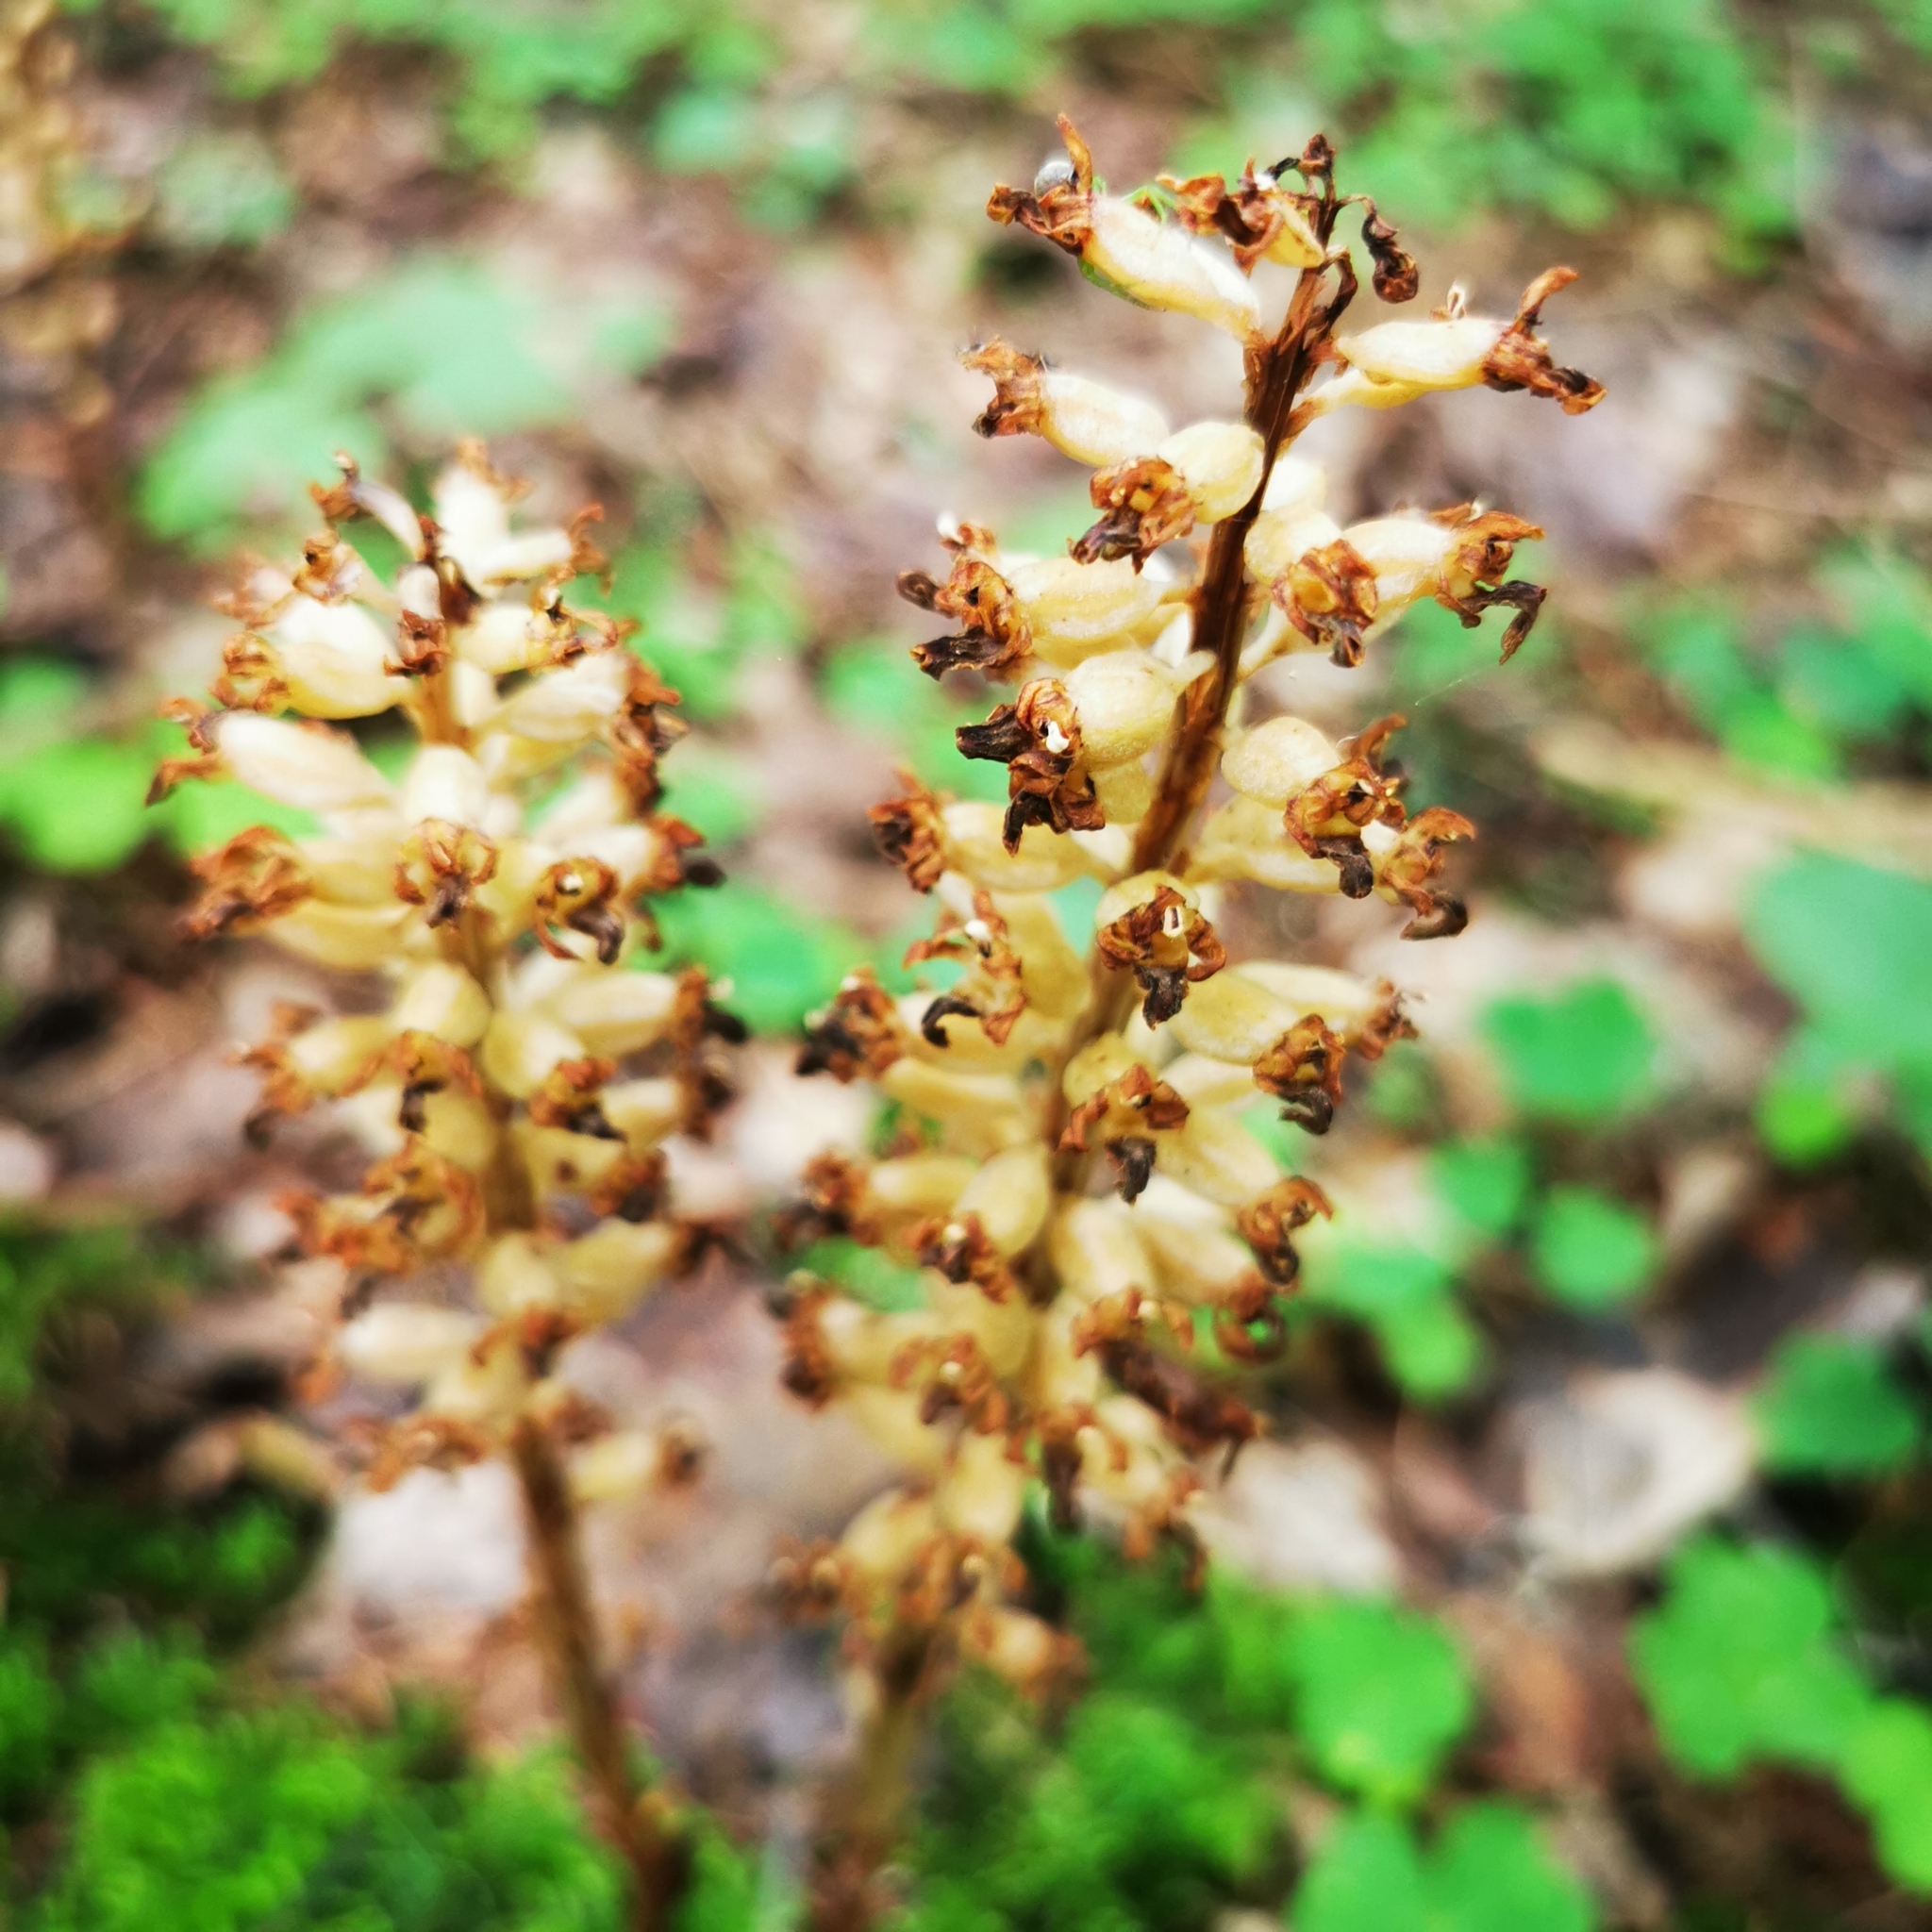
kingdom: Plantae
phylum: Tracheophyta
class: Liliopsida
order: Asparagales
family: Orchidaceae
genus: Neottia
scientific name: Neottia nidus-avis
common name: Bird's-nest orchid
